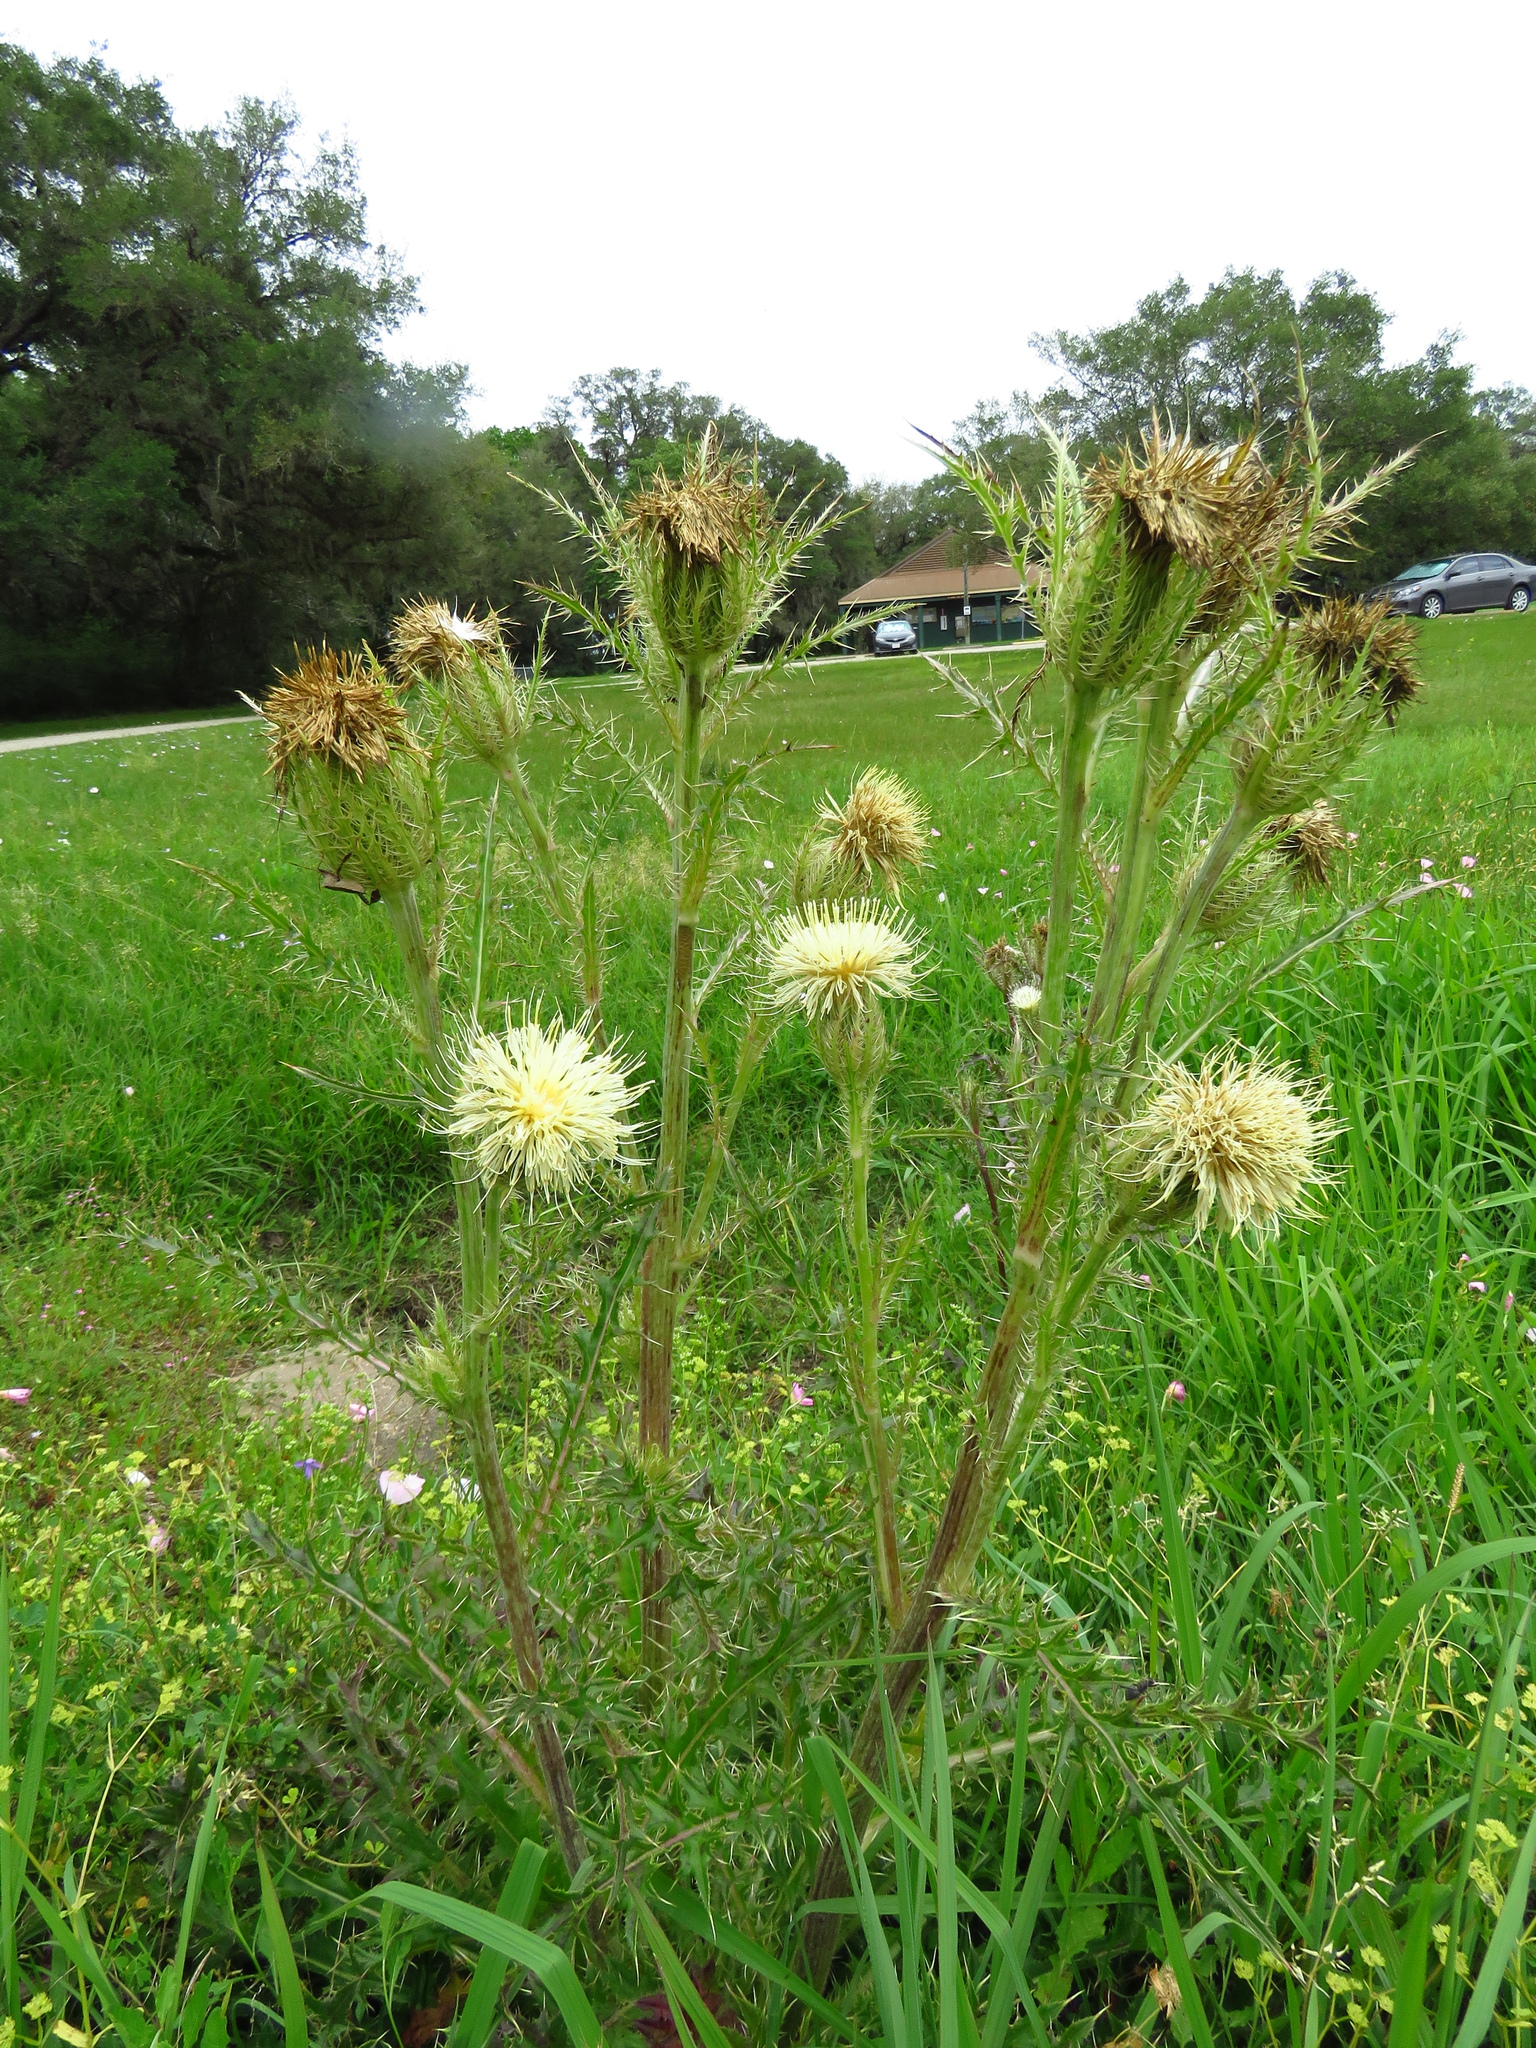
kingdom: Plantae
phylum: Tracheophyta
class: Magnoliopsida
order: Asterales
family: Asteraceae
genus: Cirsium
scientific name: Cirsium horridulum
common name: Bristly thistle
